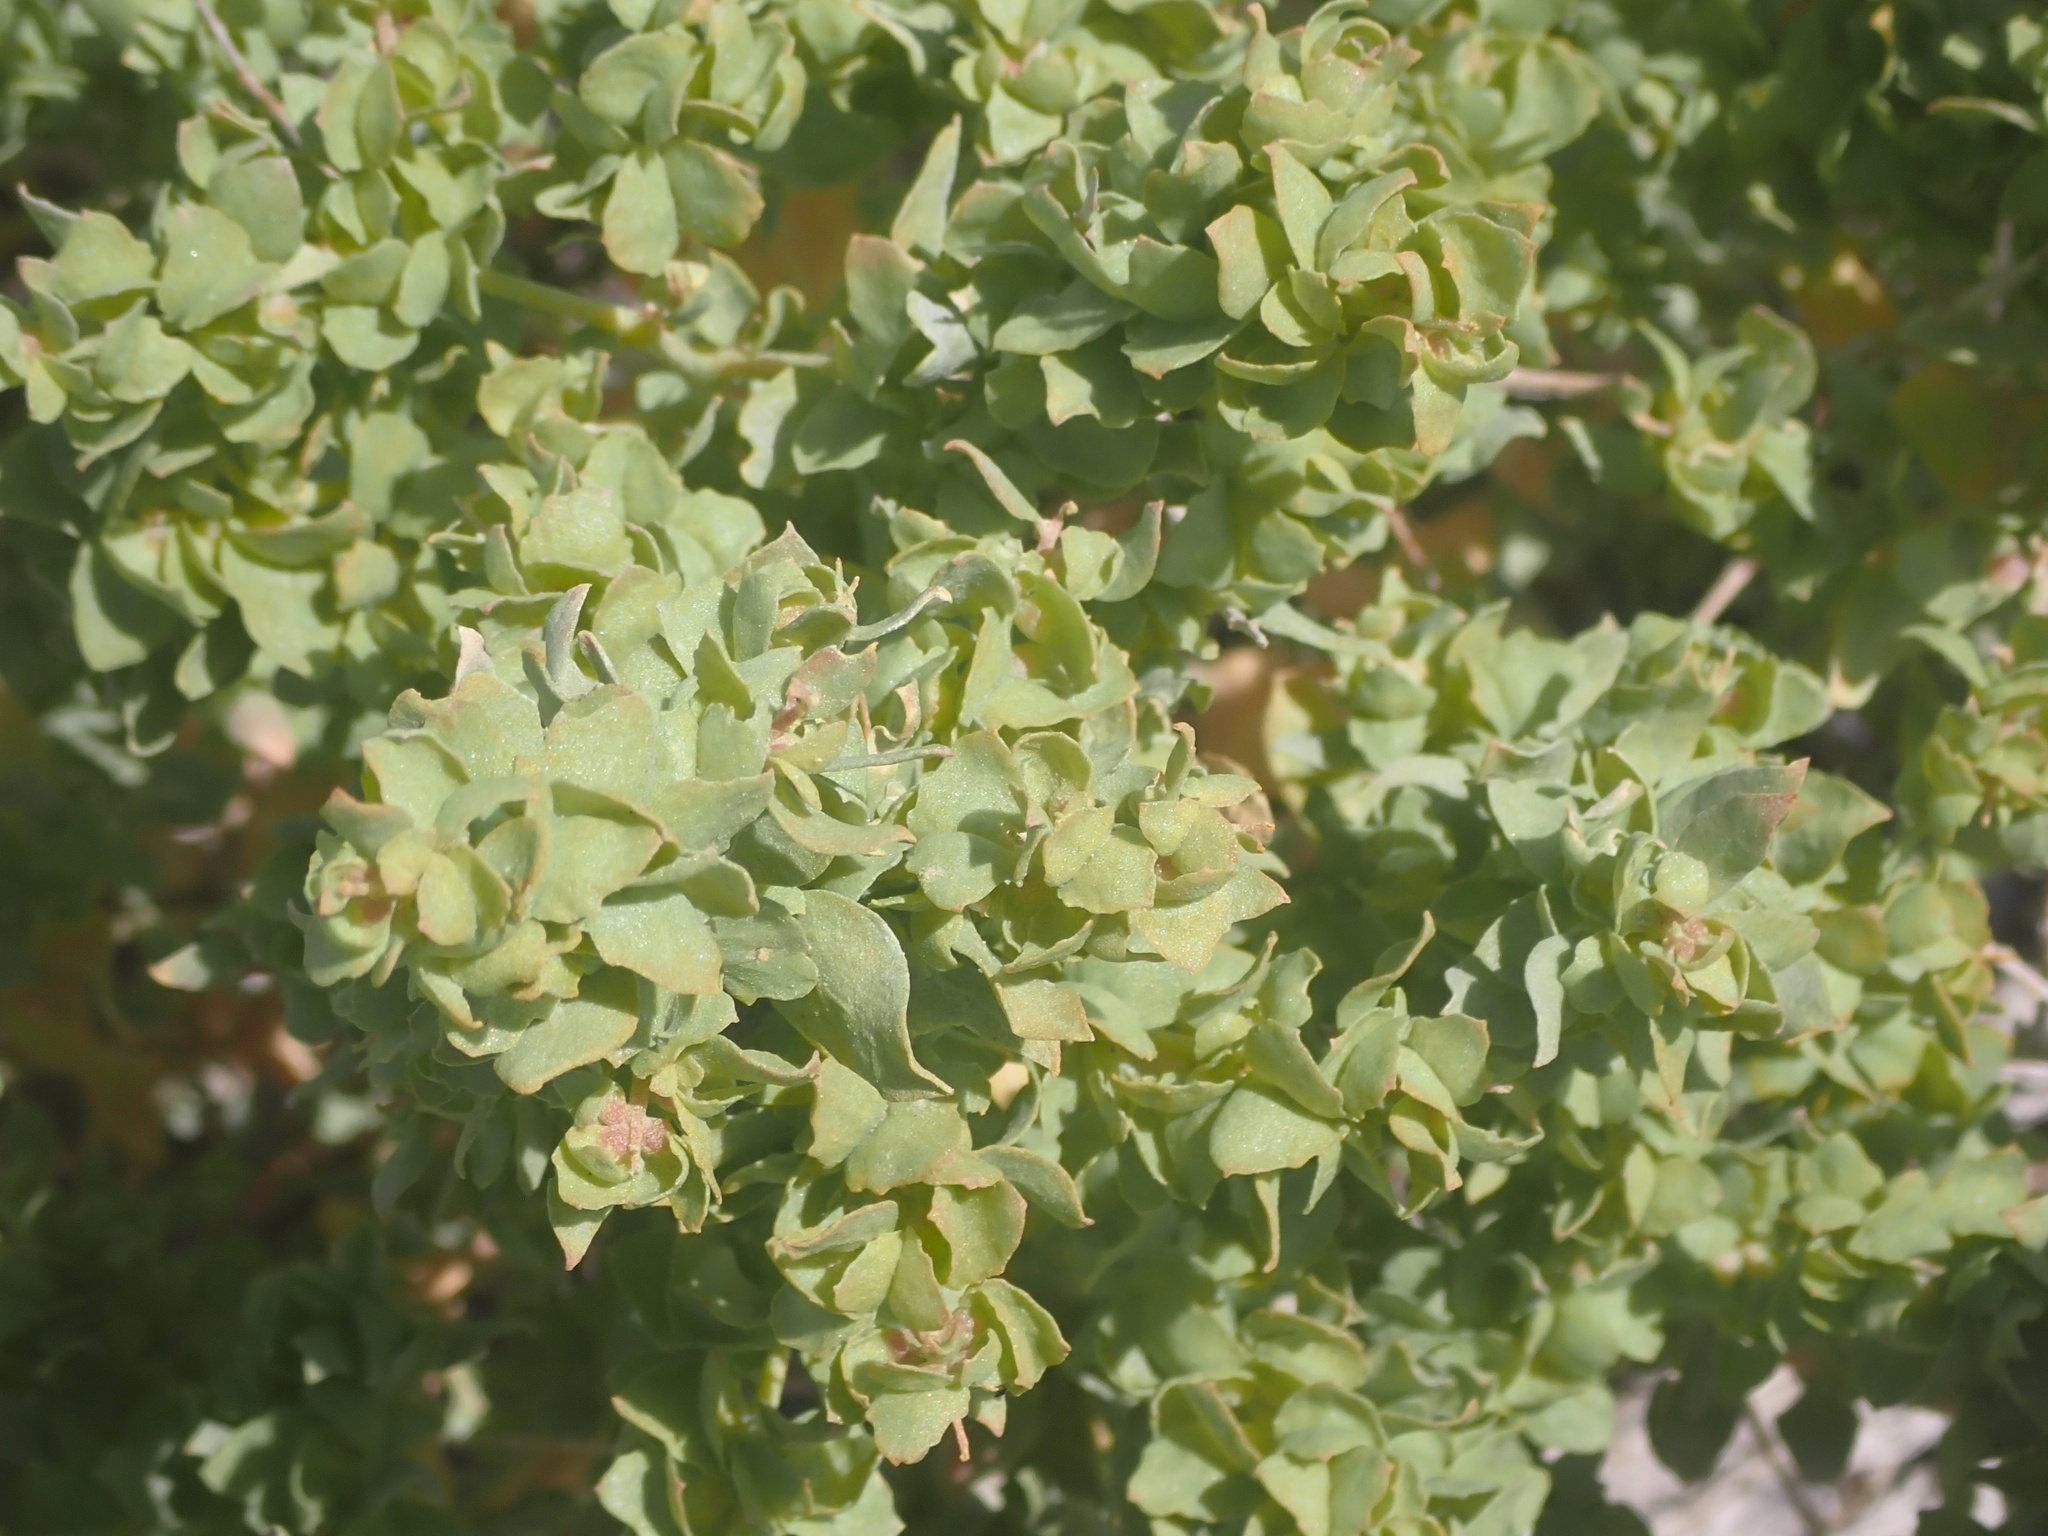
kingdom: Plantae
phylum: Tracheophyta
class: Magnoliopsida
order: Caryophyllales
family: Amaranthaceae
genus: Atriplex
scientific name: Atriplex confertifolia
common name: Shadscale
